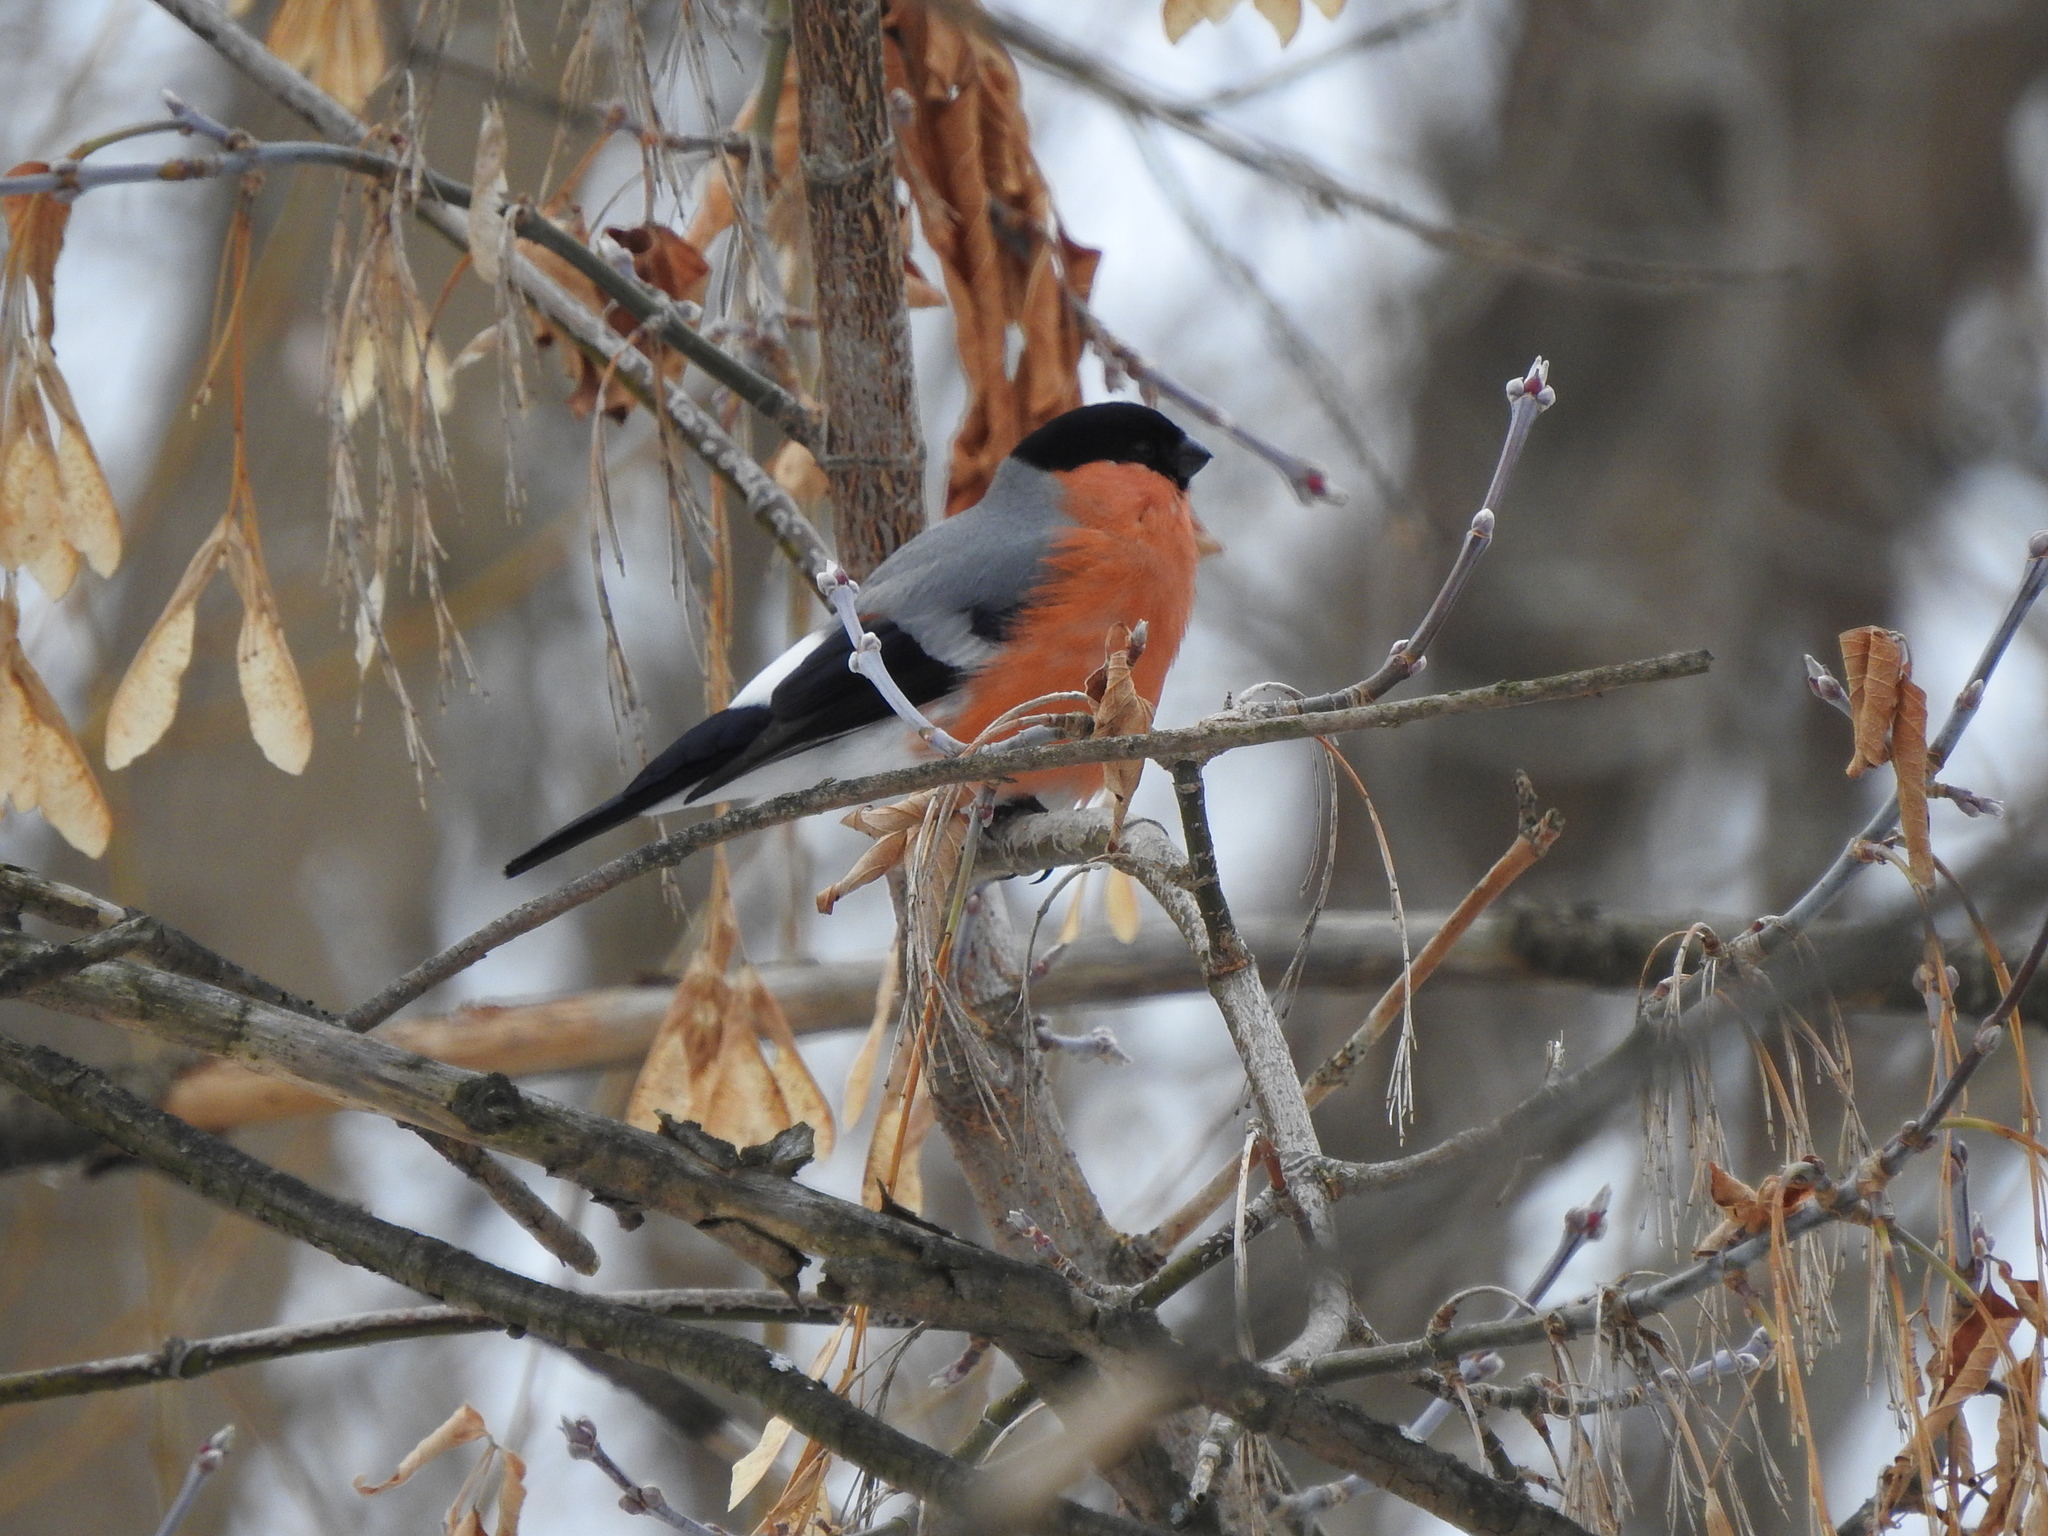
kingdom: Animalia
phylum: Chordata
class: Aves
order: Passeriformes
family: Fringillidae
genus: Pyrrhula
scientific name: Pyrrhula pyrrhula
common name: Eurasian bullfinch
